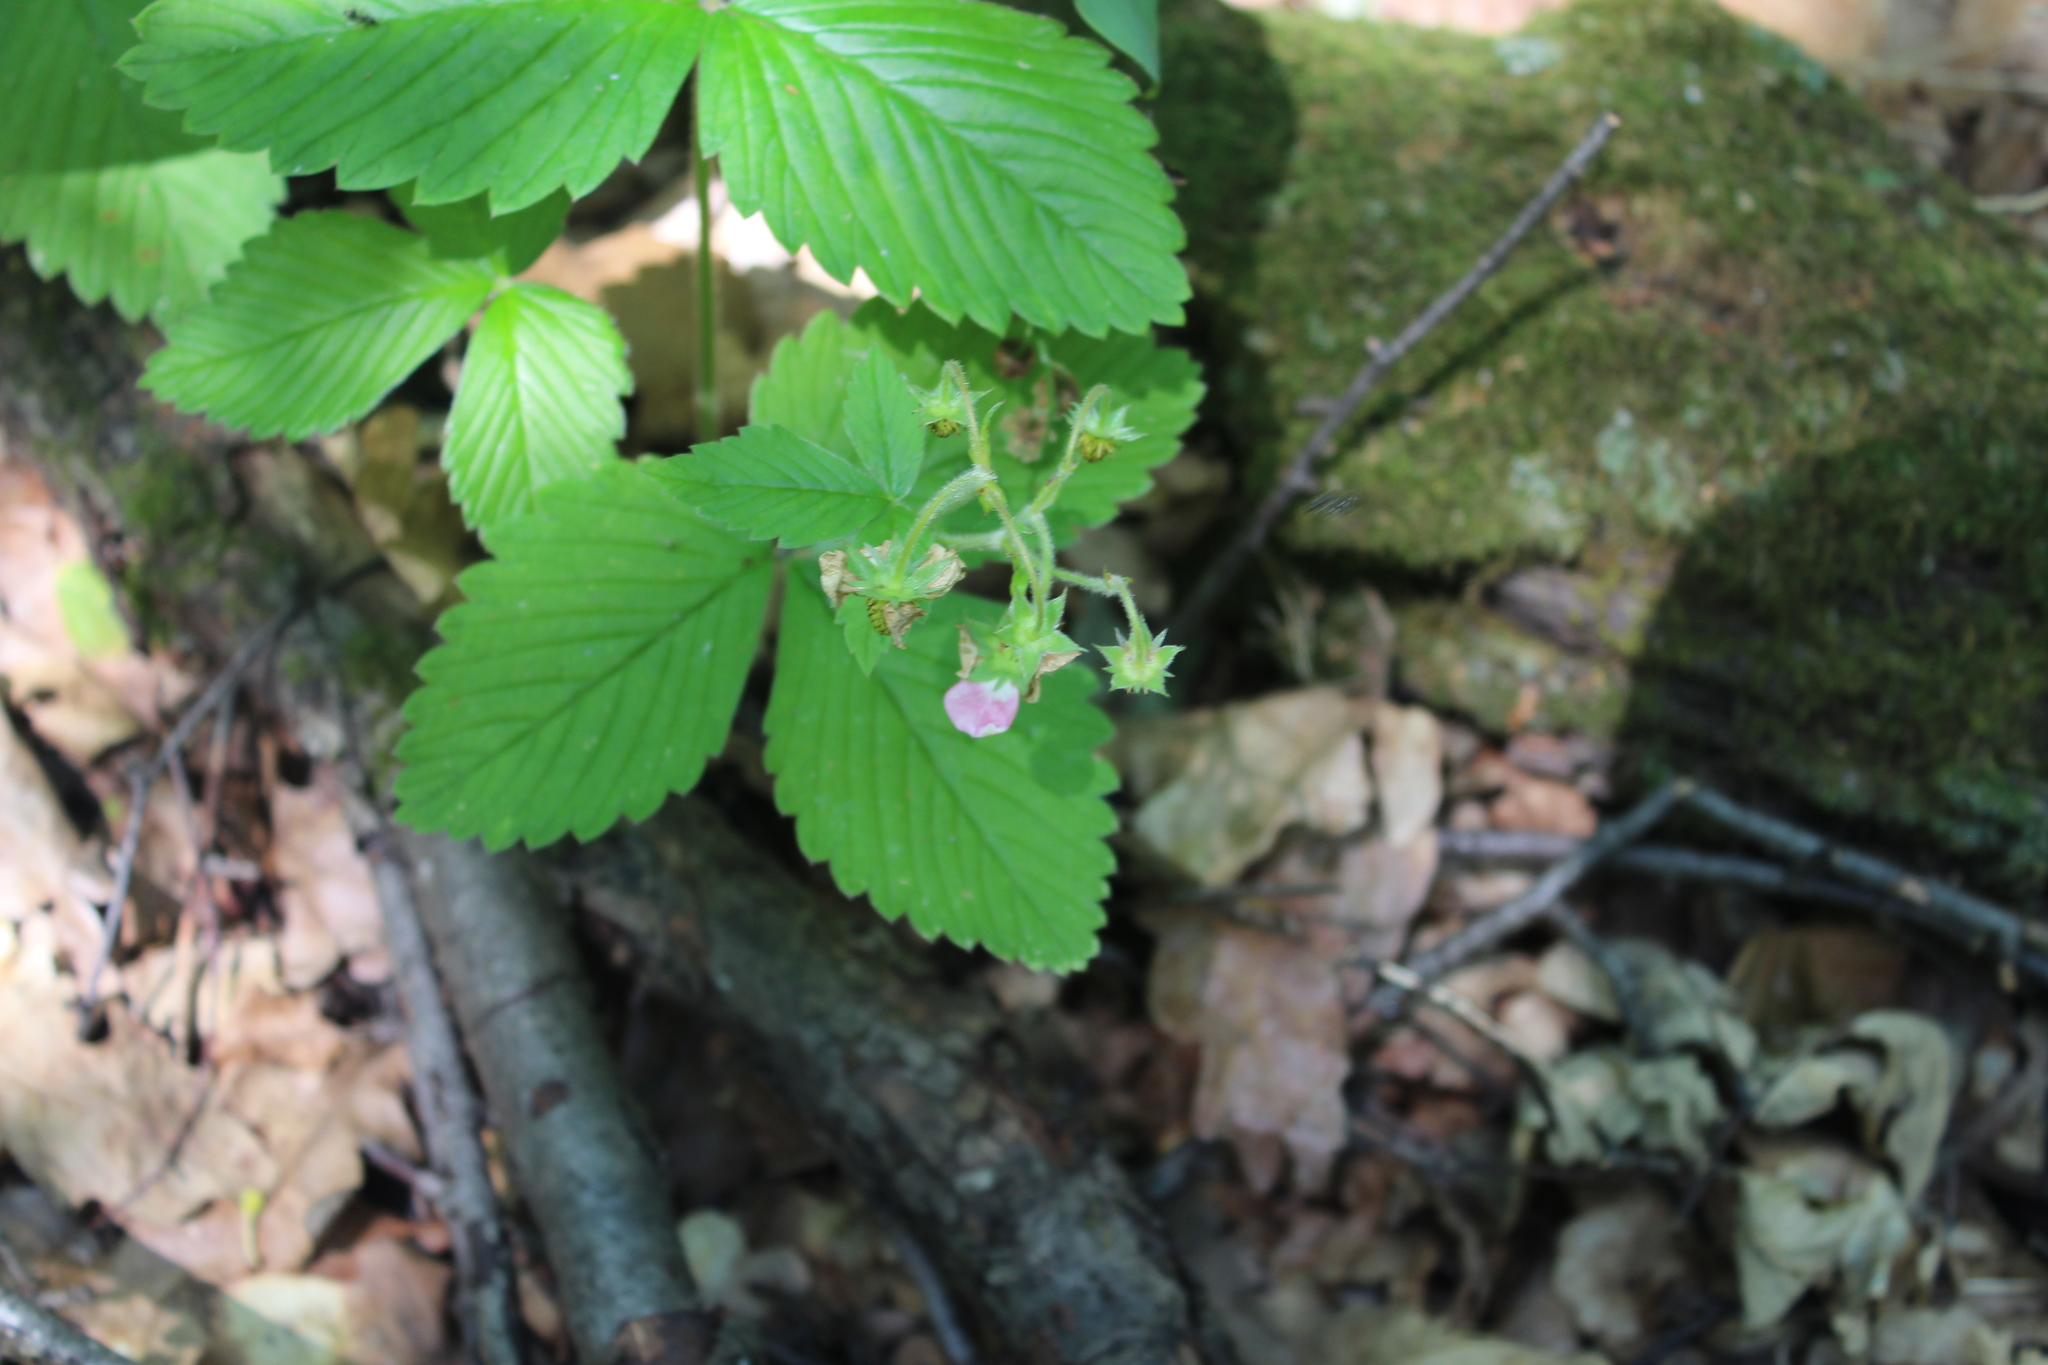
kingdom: Plantae
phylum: Tracheophyta
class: Magnoliopsida
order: Rosales
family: Rosaceae
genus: Fragaria
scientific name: Fragaria moschata
